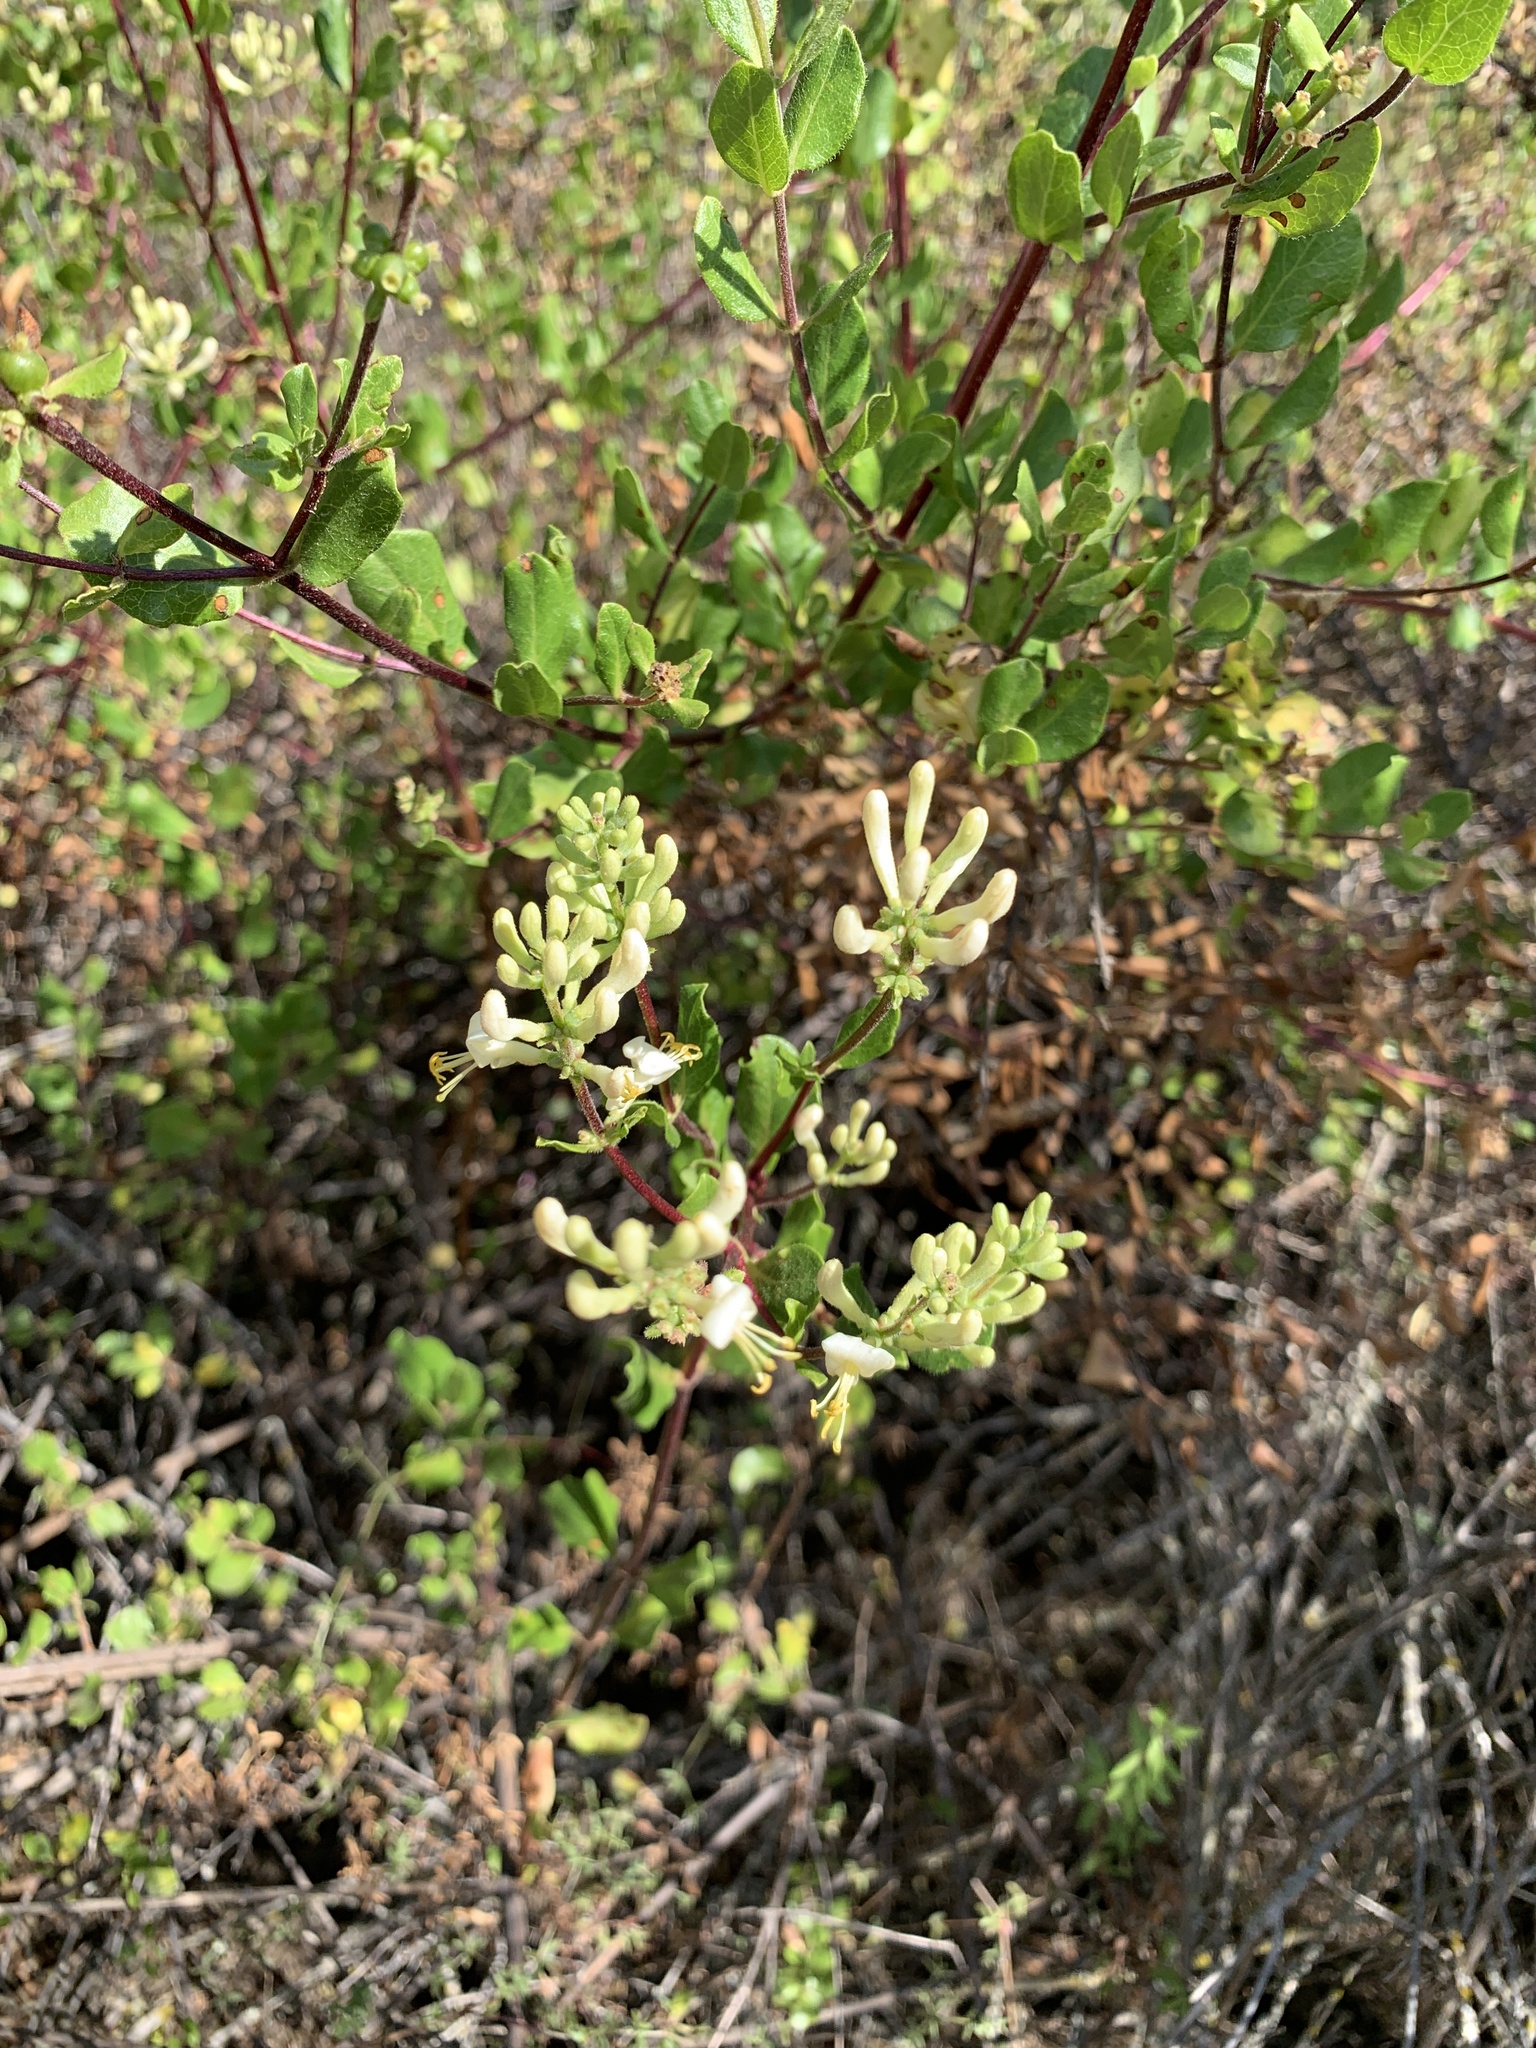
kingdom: Plantae
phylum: Tracheophyta
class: Magnoliopsida
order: Dipsacales
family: Caprifoliaceae
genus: Lonicera
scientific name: Lonicera subspicata
